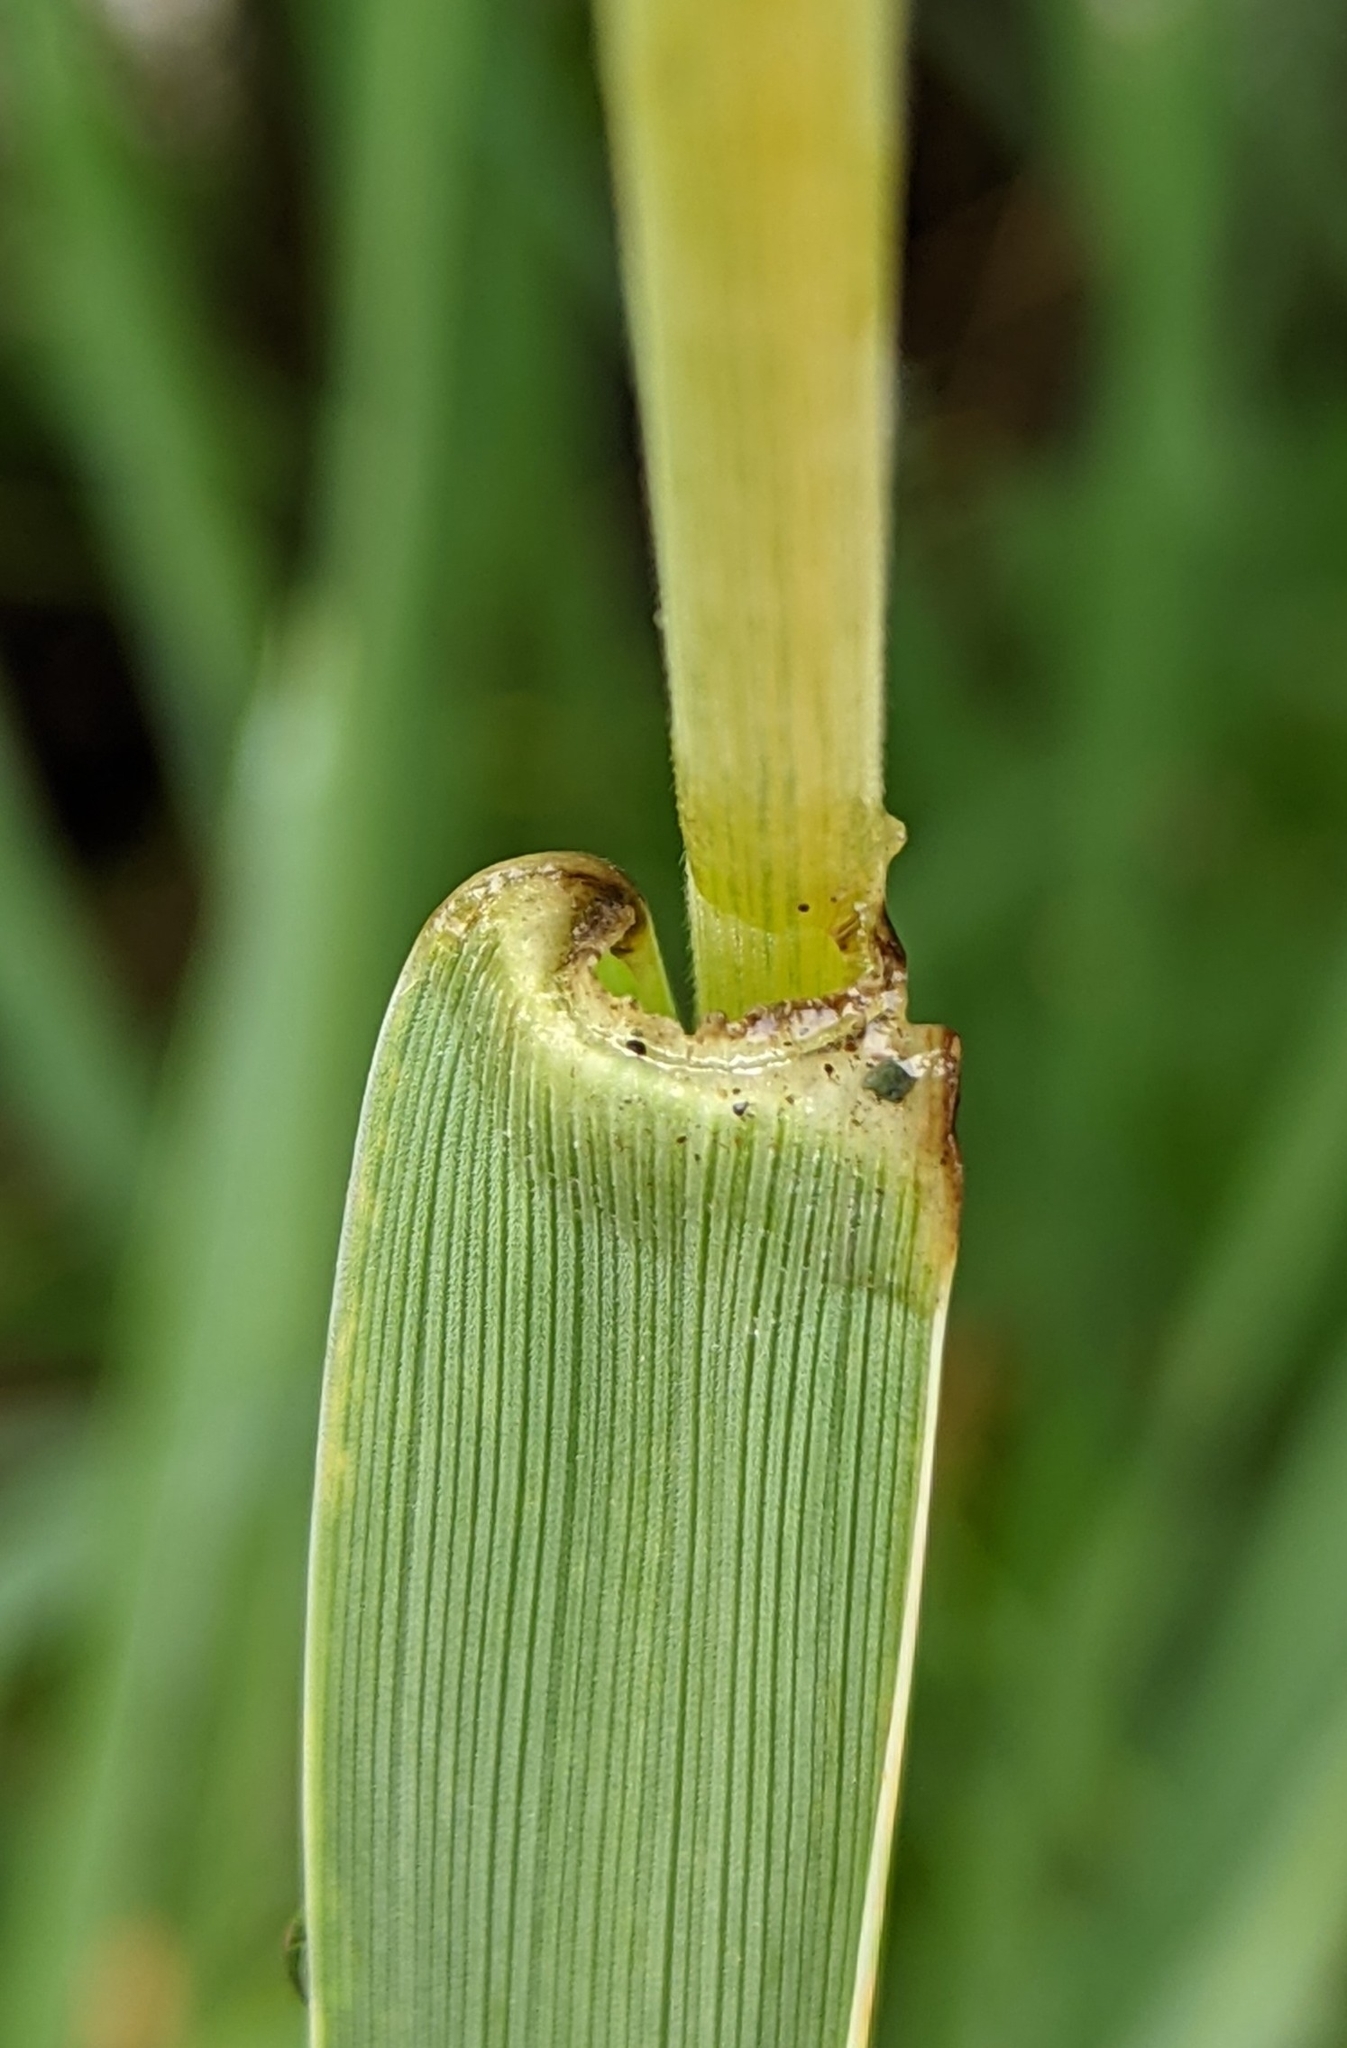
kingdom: Plantae
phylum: Tracheophyta
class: Liliopsida
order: Poales
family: Poaceae
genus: Leymus
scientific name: Leymus mollis
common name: American dune grass
